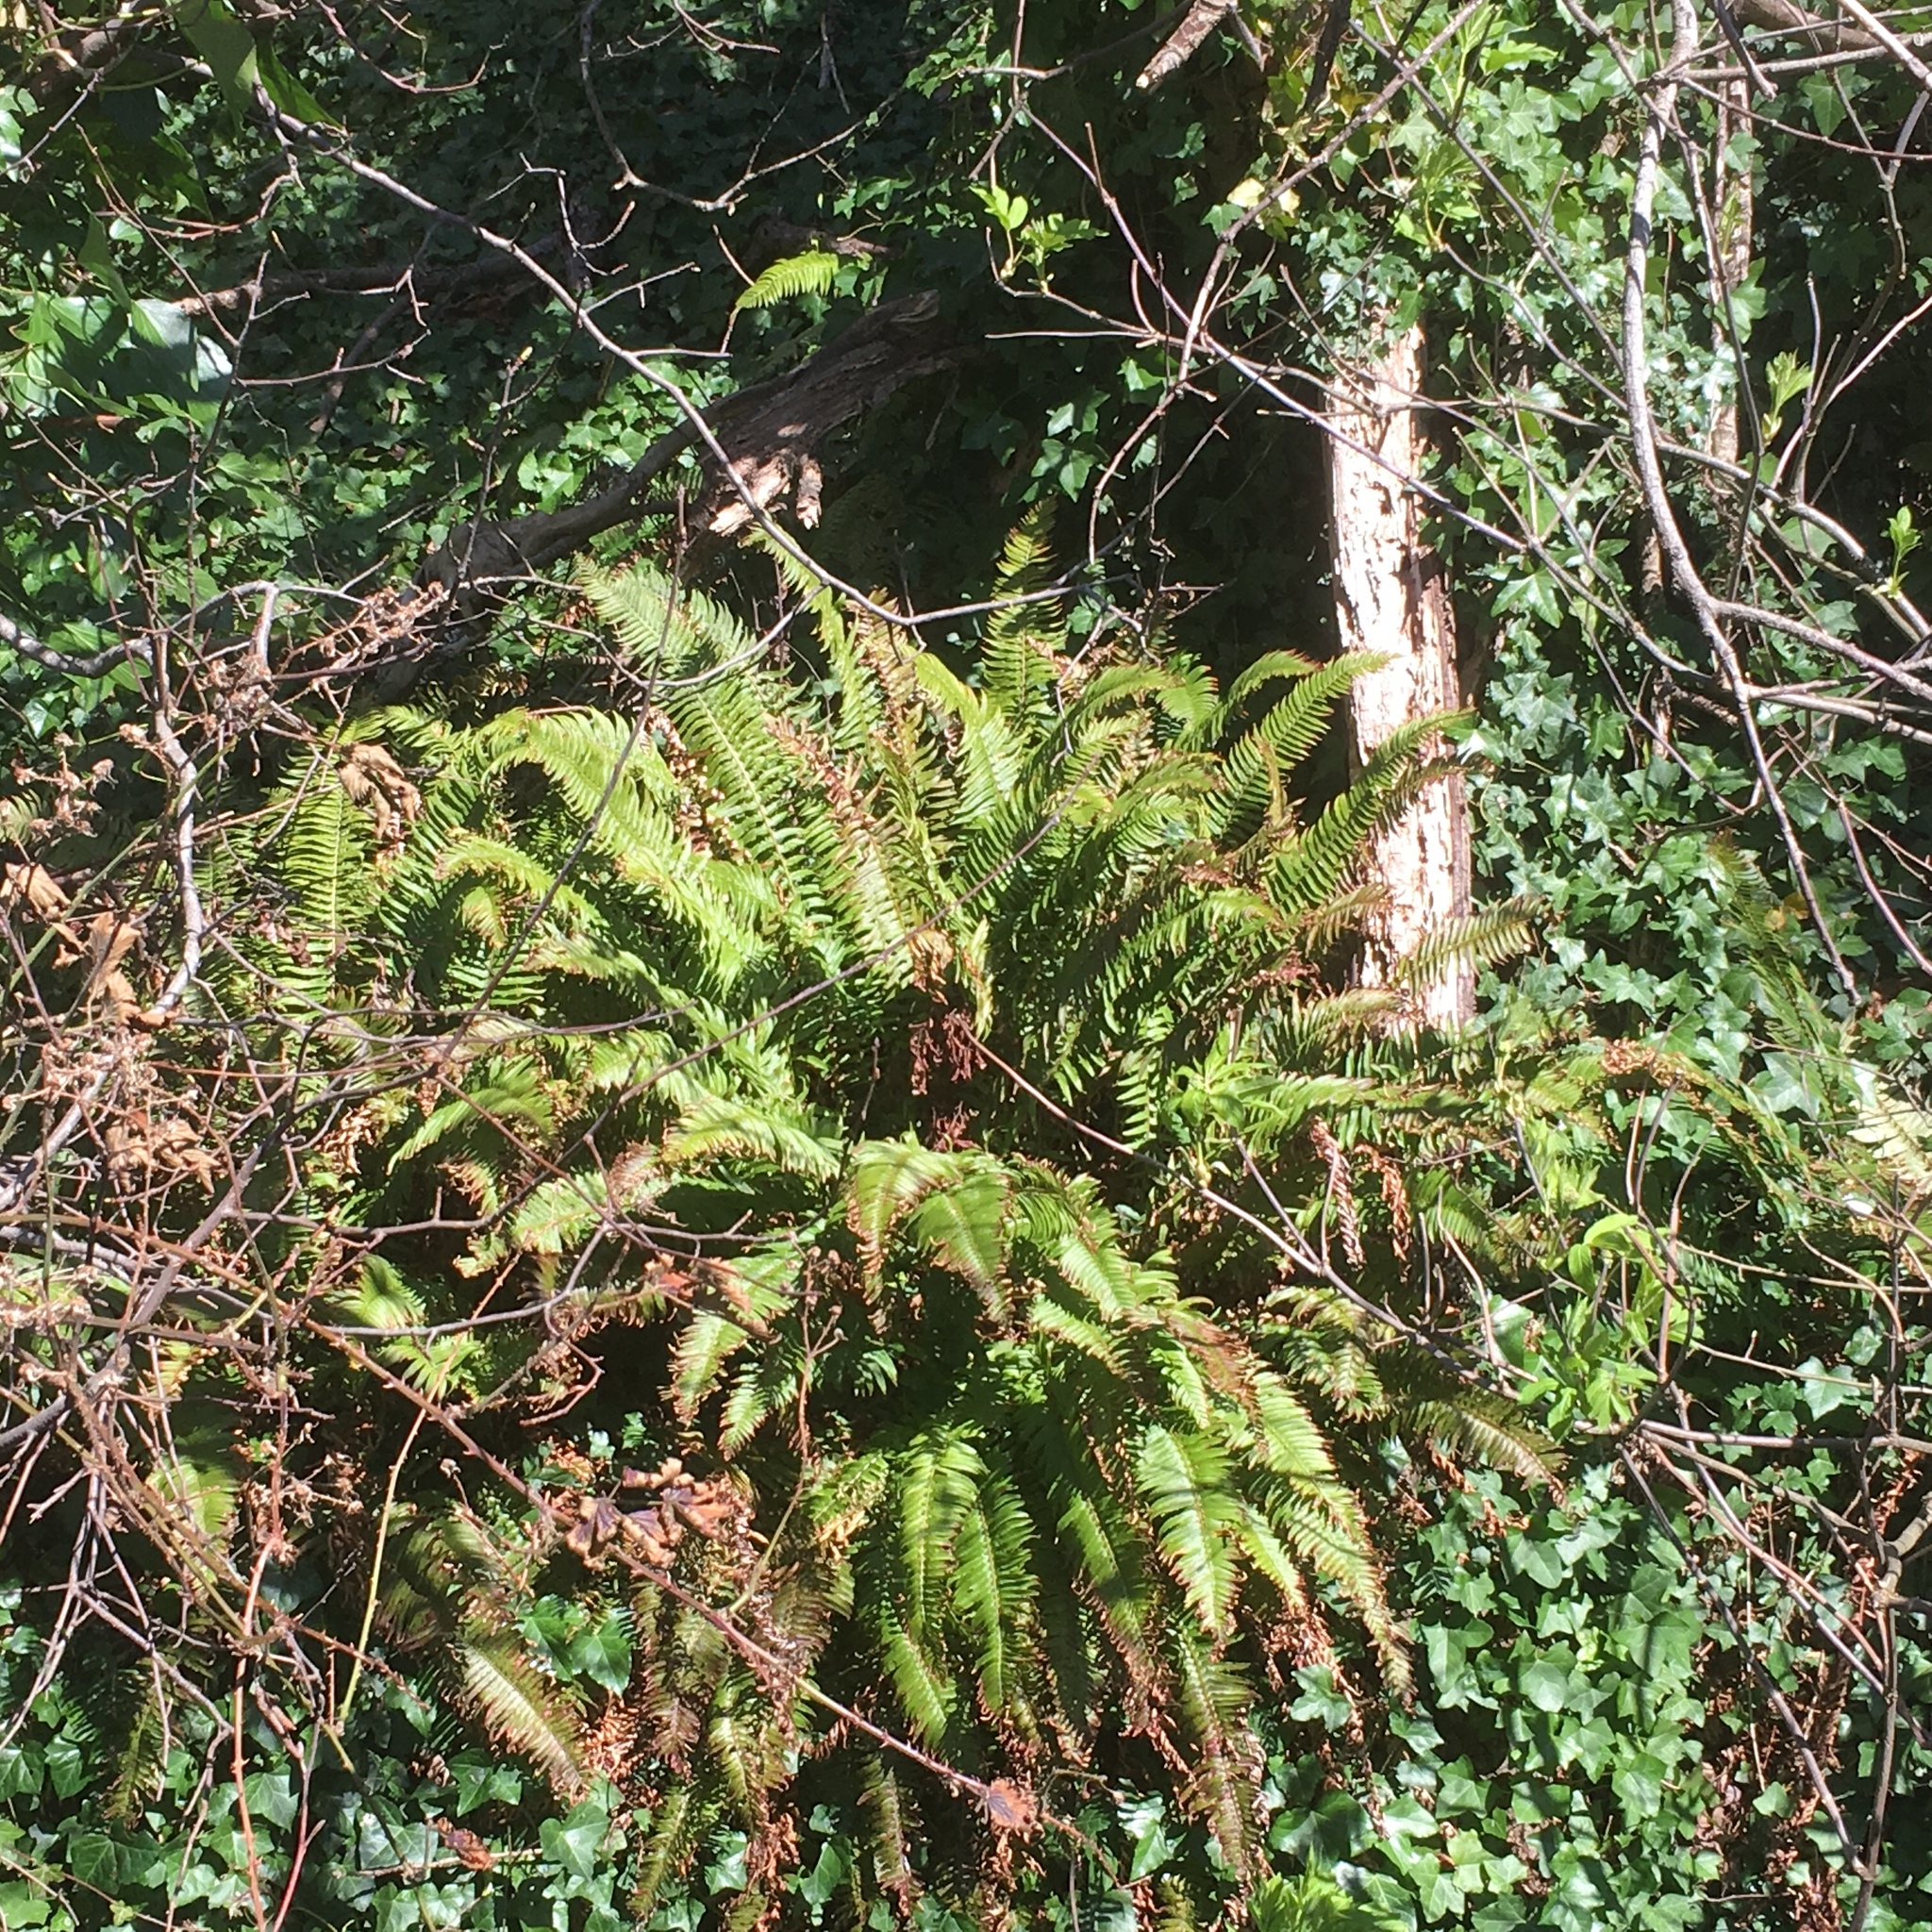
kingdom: Plantae
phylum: Tracheophyta
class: Polypodiopsida
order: Polypodiales
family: Dryopteridaceae
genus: Polystichum
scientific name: Polystichum munitum
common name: Western sword-fern
